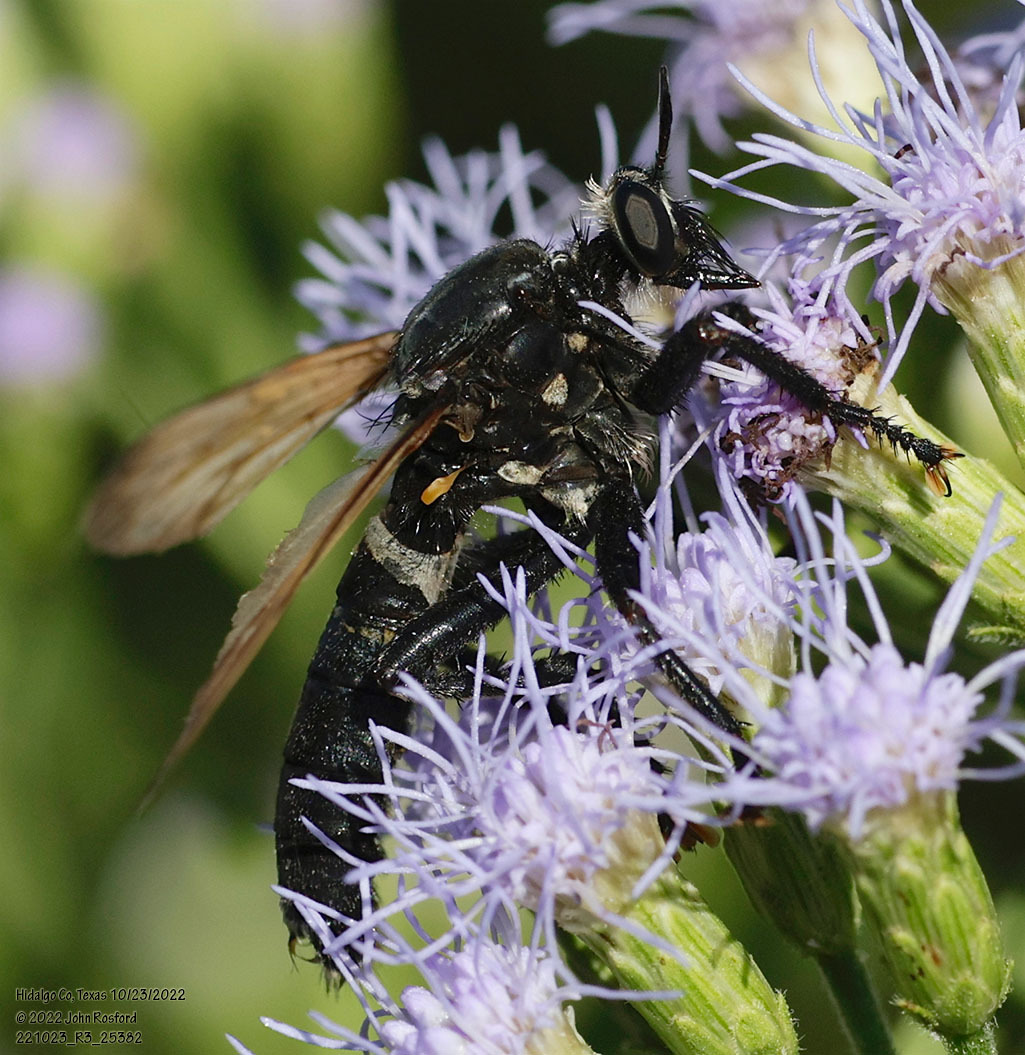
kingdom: Animalia
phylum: Arthropoda
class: Insecta
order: Diptera
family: Asilidae
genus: Prolepsis
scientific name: Prolepsis tristis
